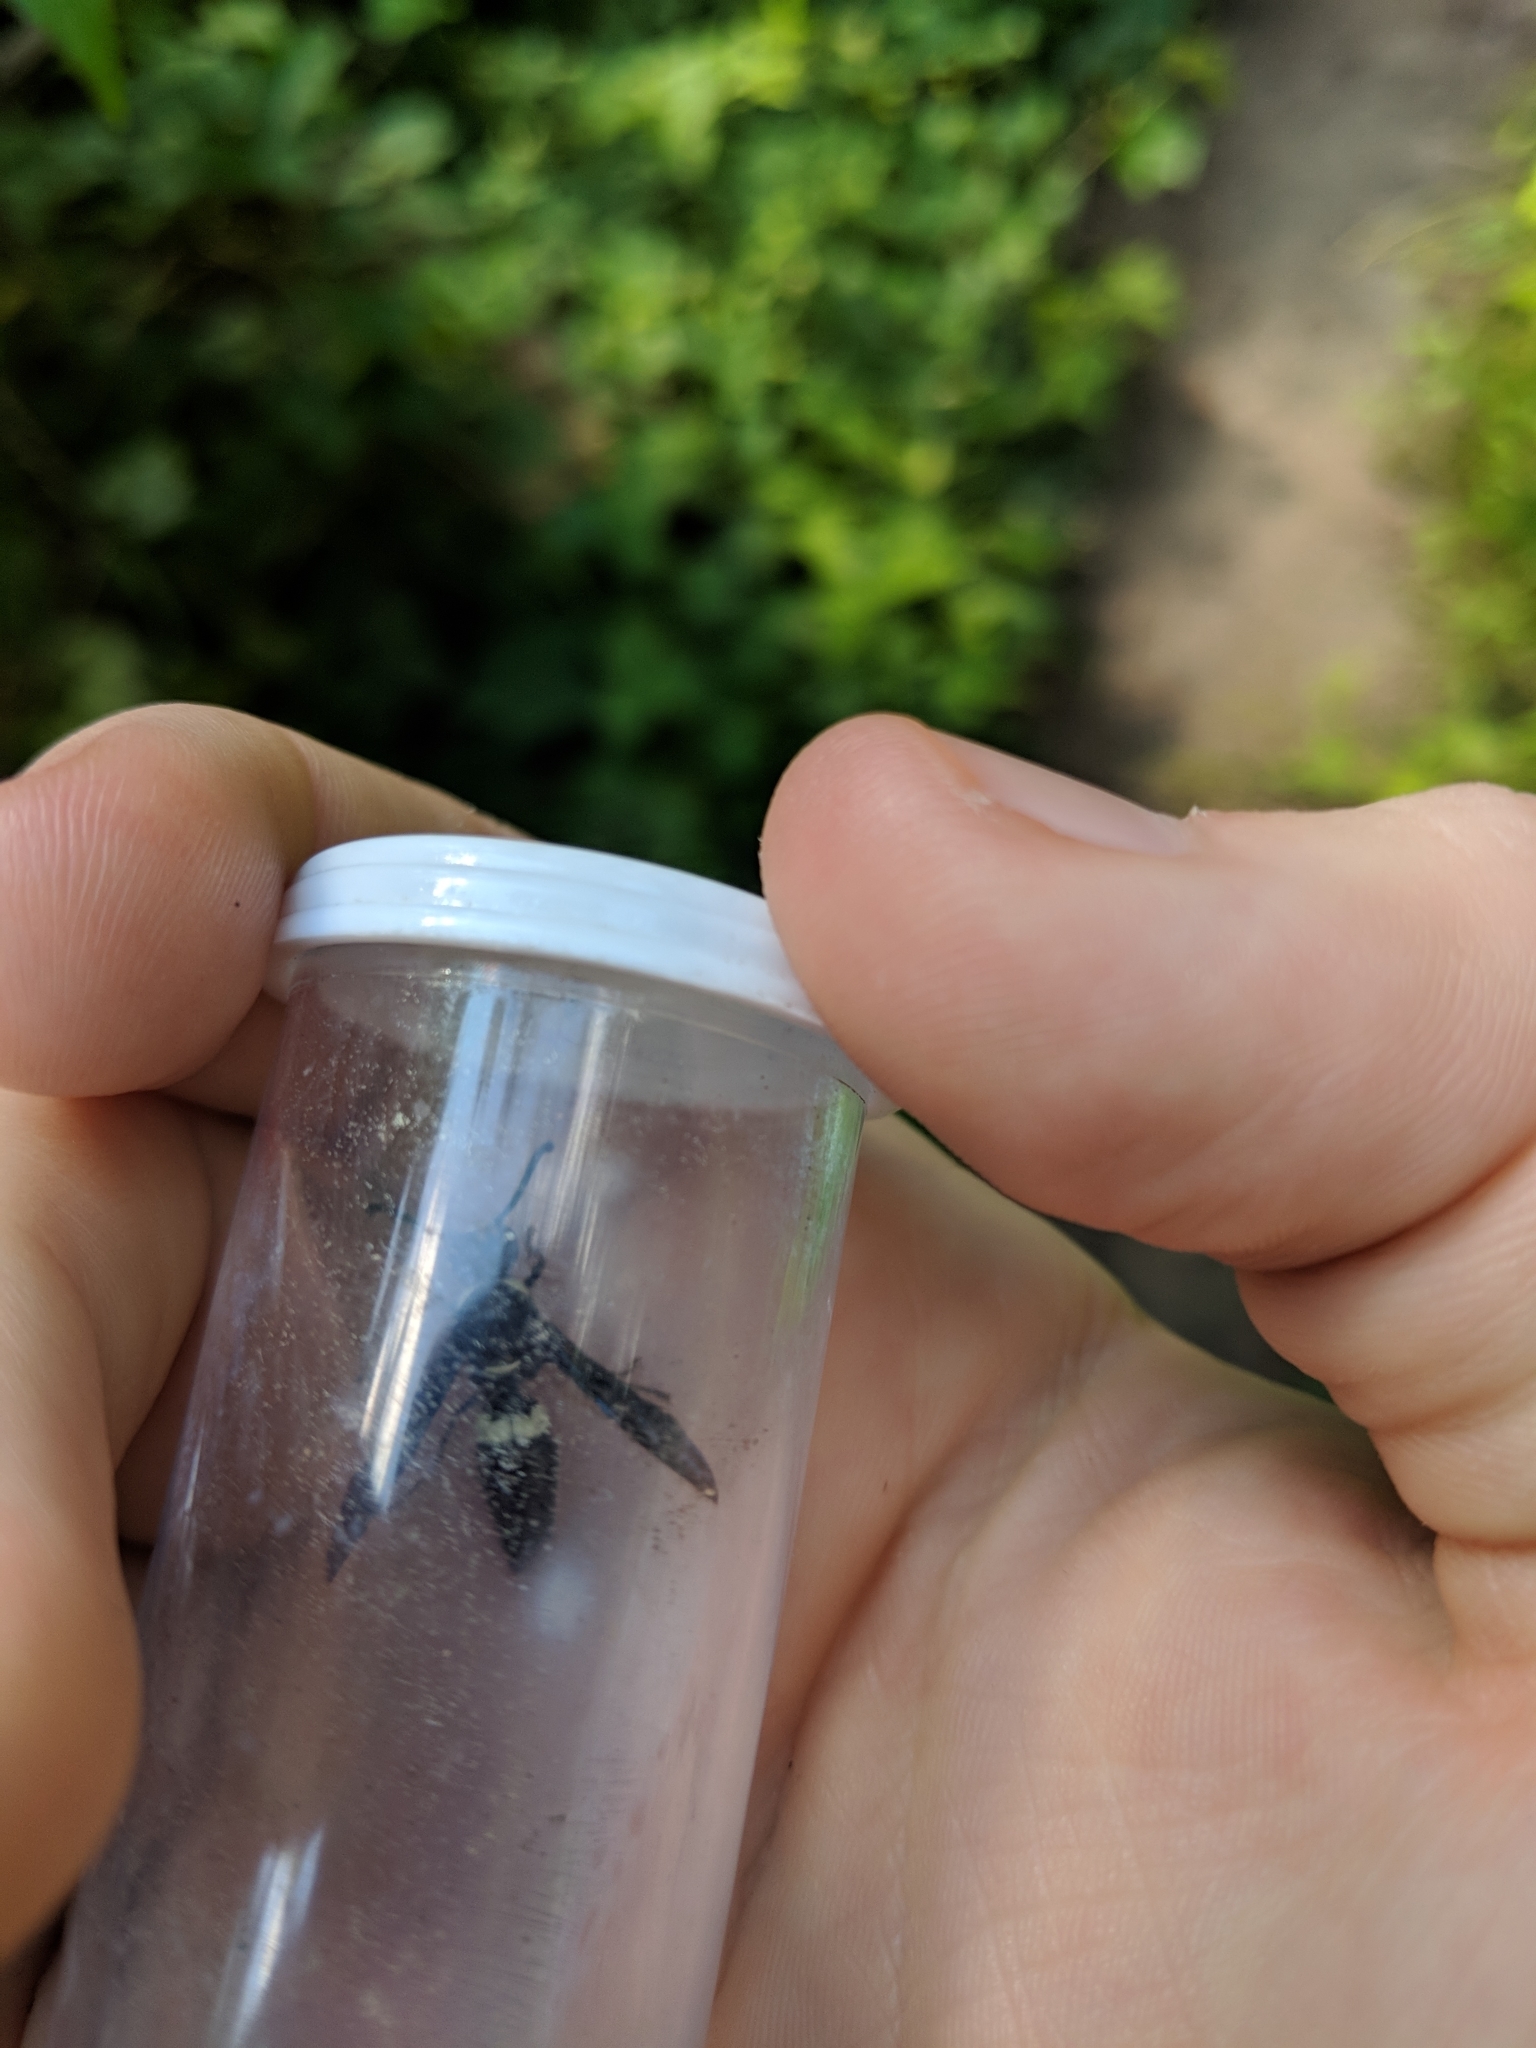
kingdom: Animalia
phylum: Arthropoda
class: Insecta
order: Hymenoptera
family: Eumenidae
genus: Monobia
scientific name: Monobia quadridens
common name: Four-toothed mason wasp
